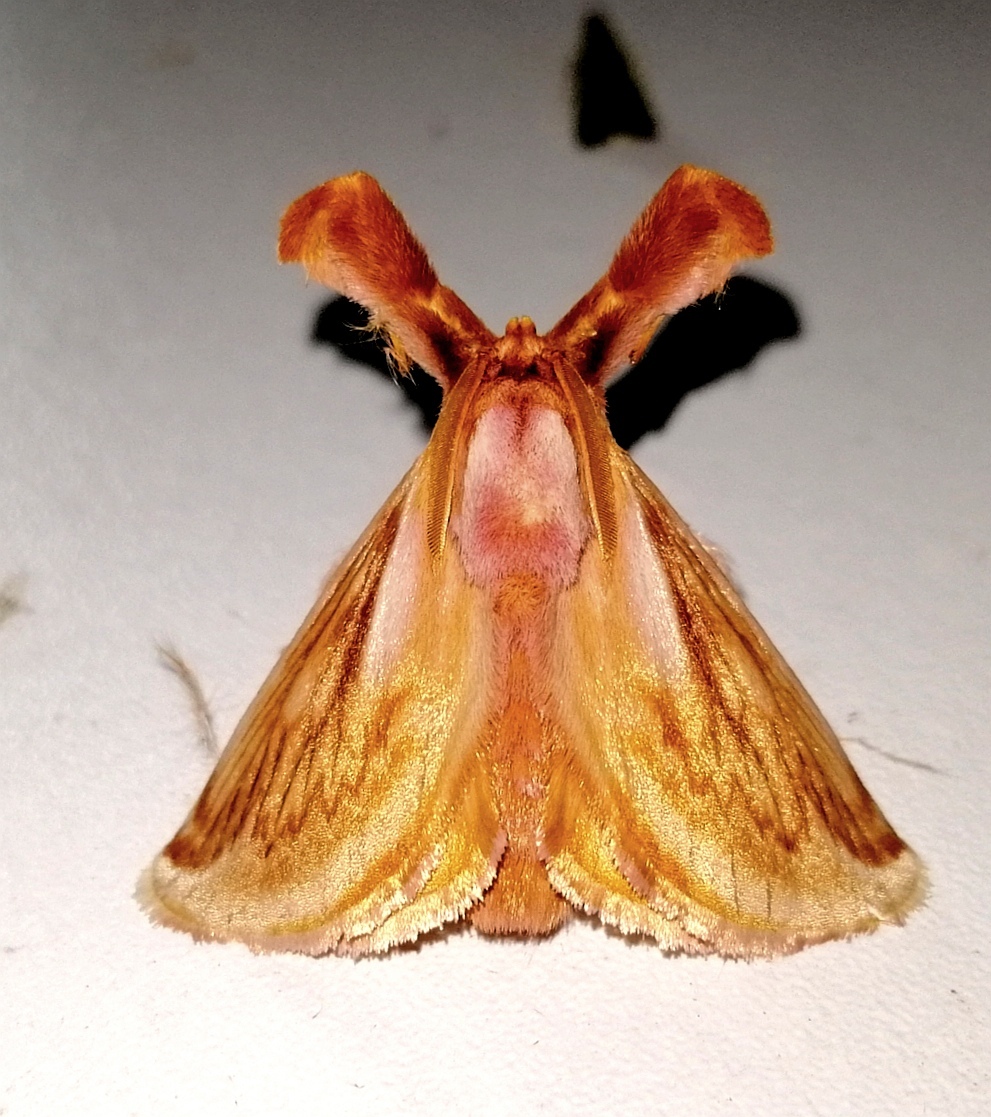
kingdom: Animalia
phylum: Arthropoda
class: Insecta
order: Lepidoptera
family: Limacodidae
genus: Perola
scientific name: Perola villosipes
